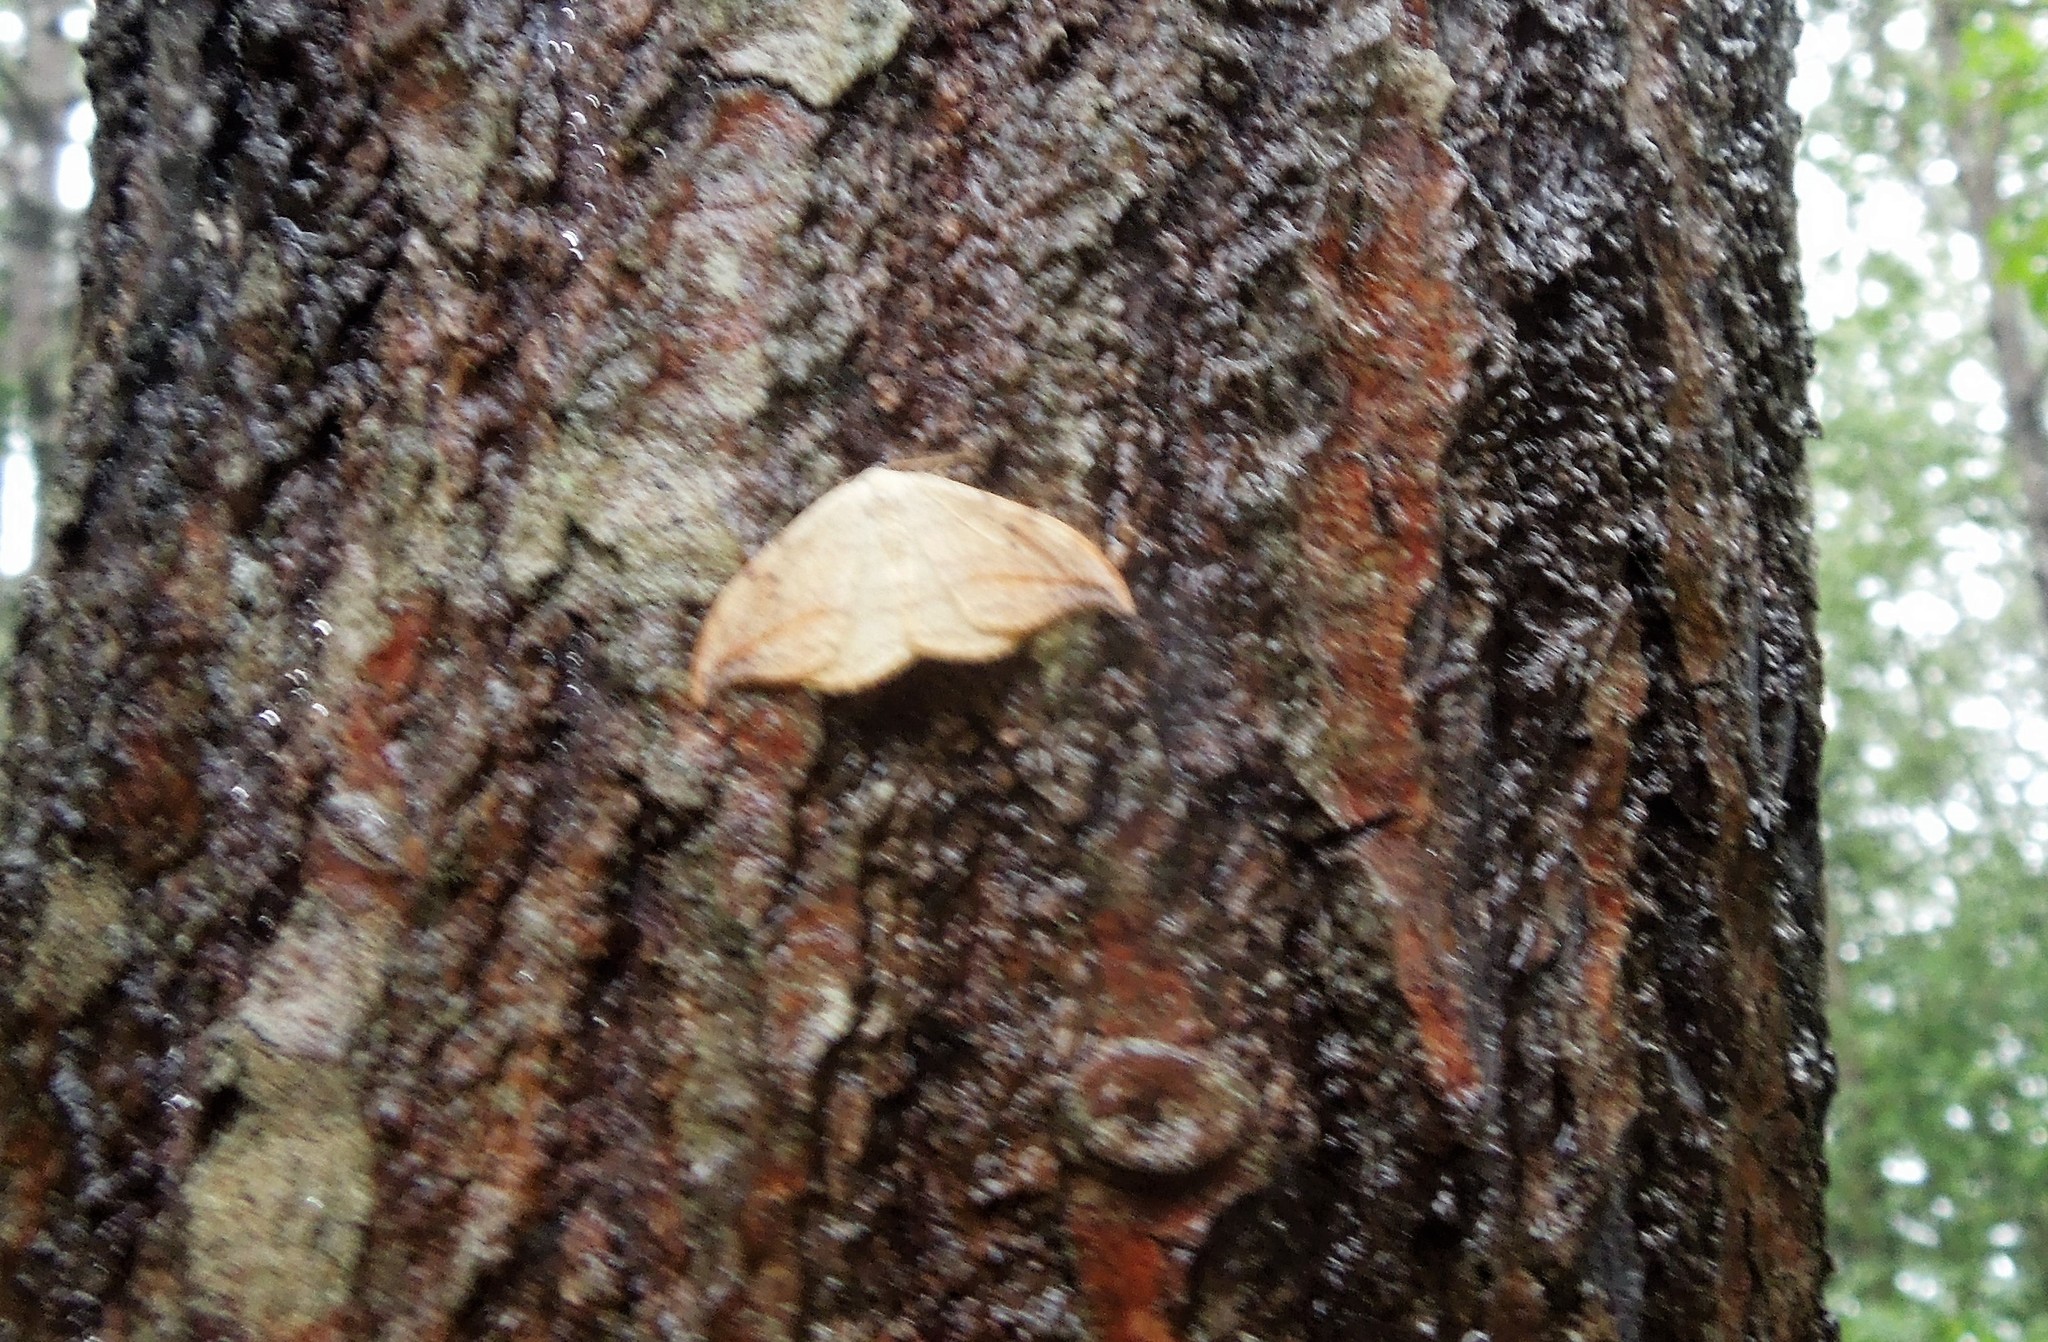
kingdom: Animalia
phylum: Arthropoda
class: Insecta
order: Lepidoptera
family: Drepanidae
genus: Drepana
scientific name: Drepana arcuata
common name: Arched hooktip moth
